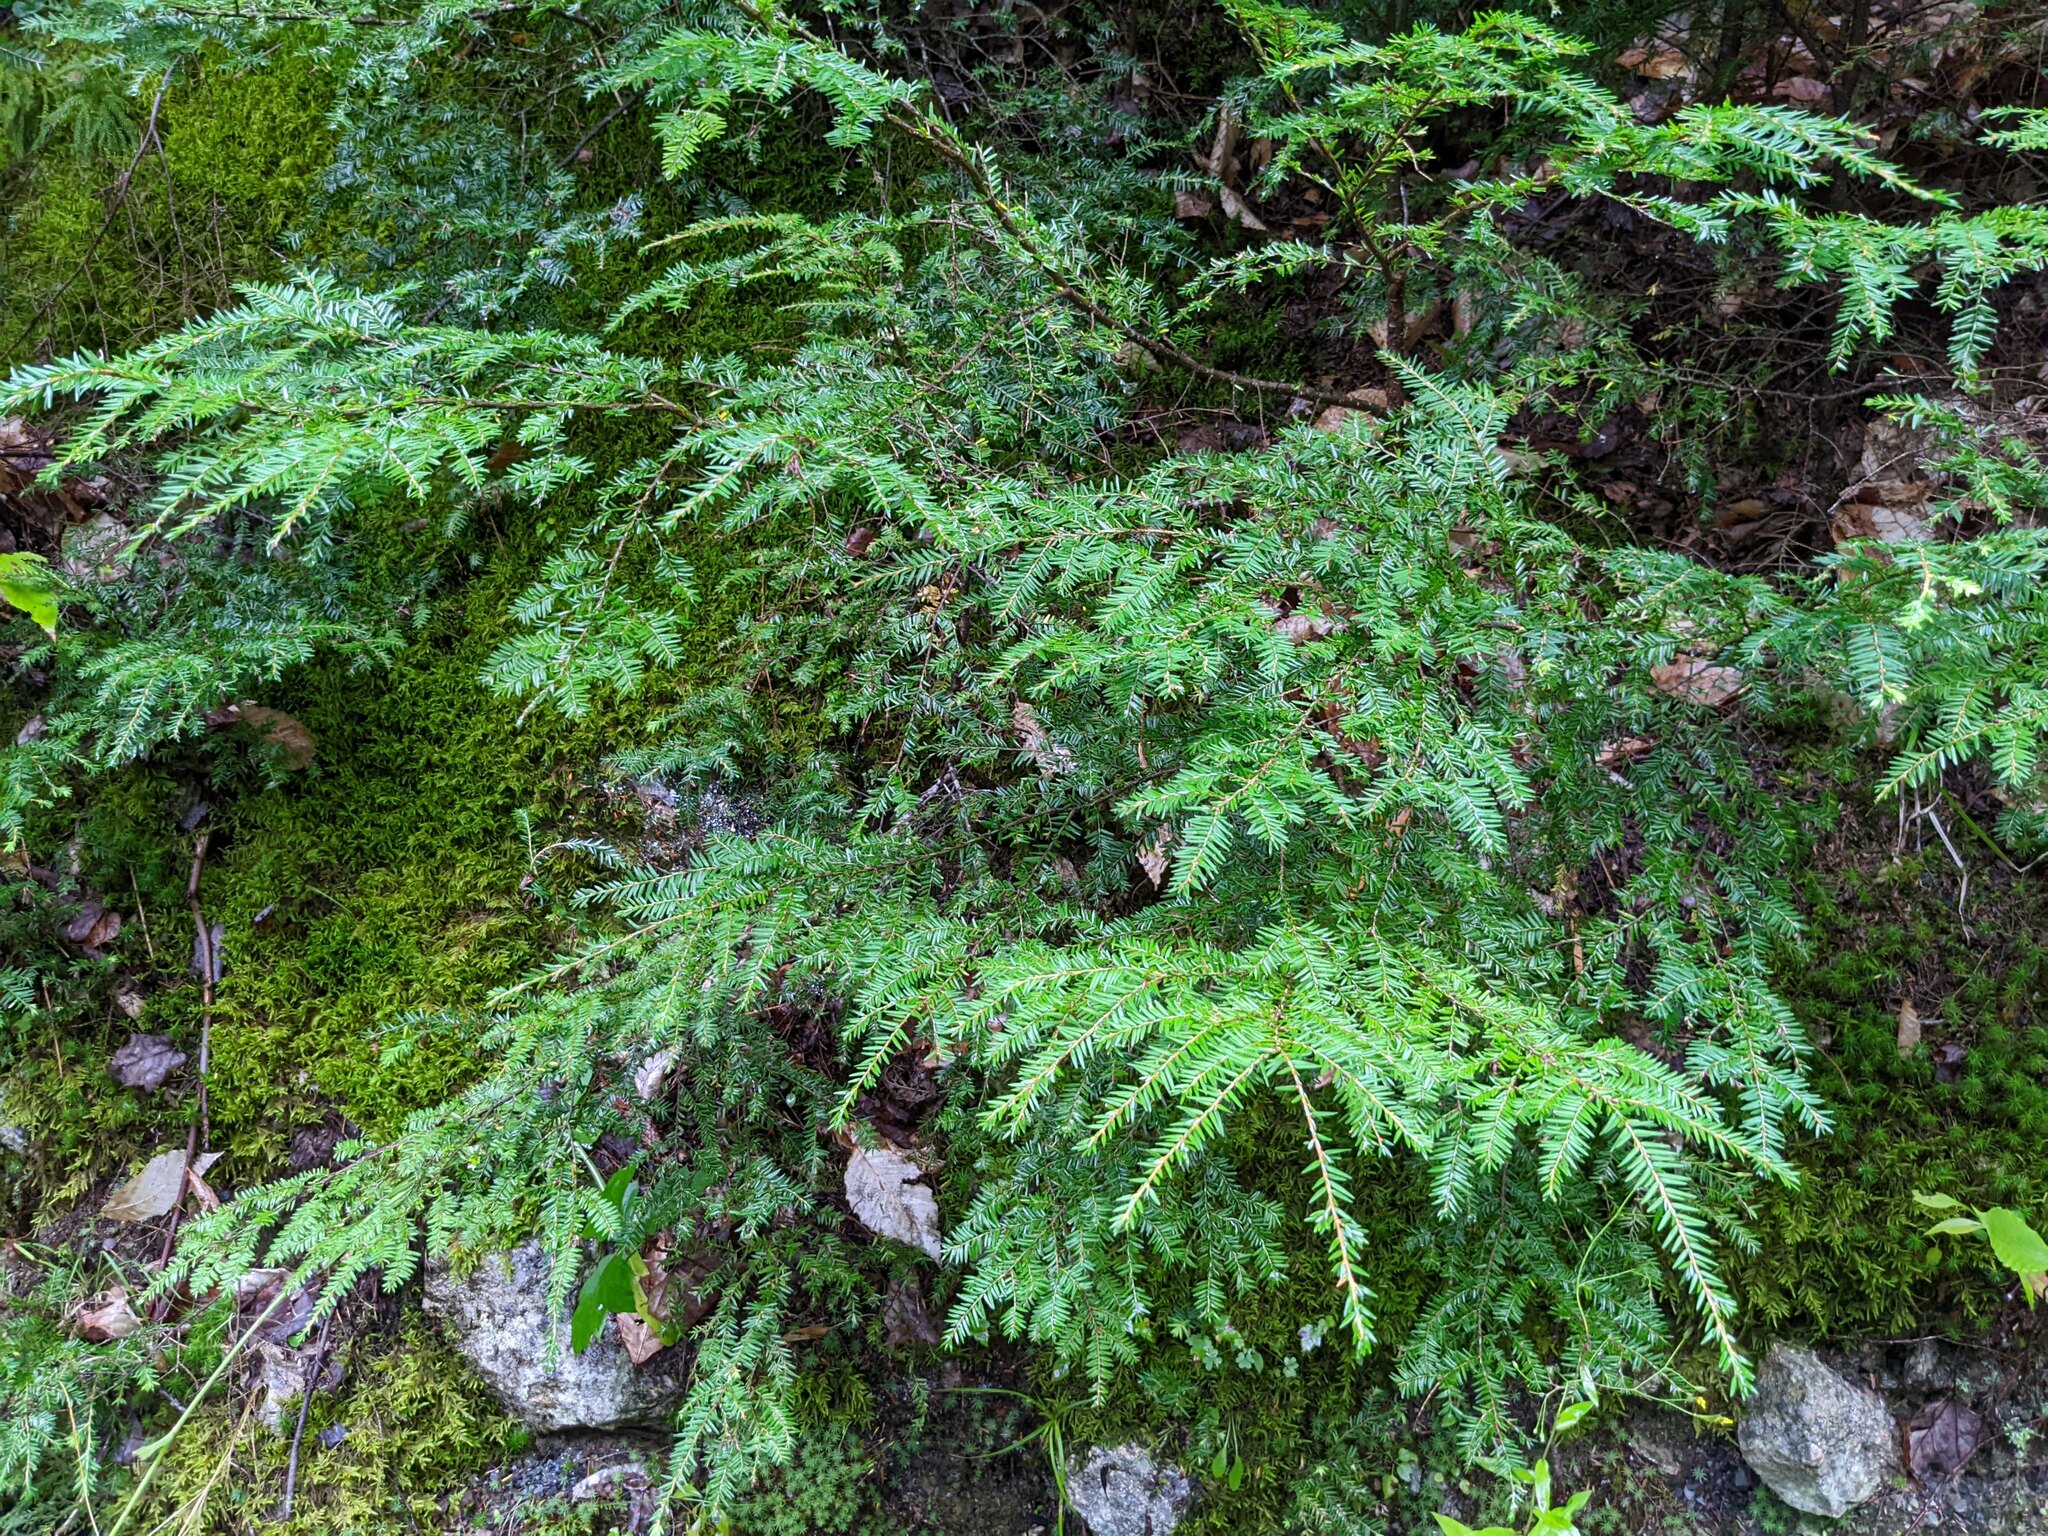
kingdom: Plantae
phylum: Tracheophyta
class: Pinopsida
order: Pinales
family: Pinaceae
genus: Tsuga
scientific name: Tsuga canadensis
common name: Eastern hemlock
